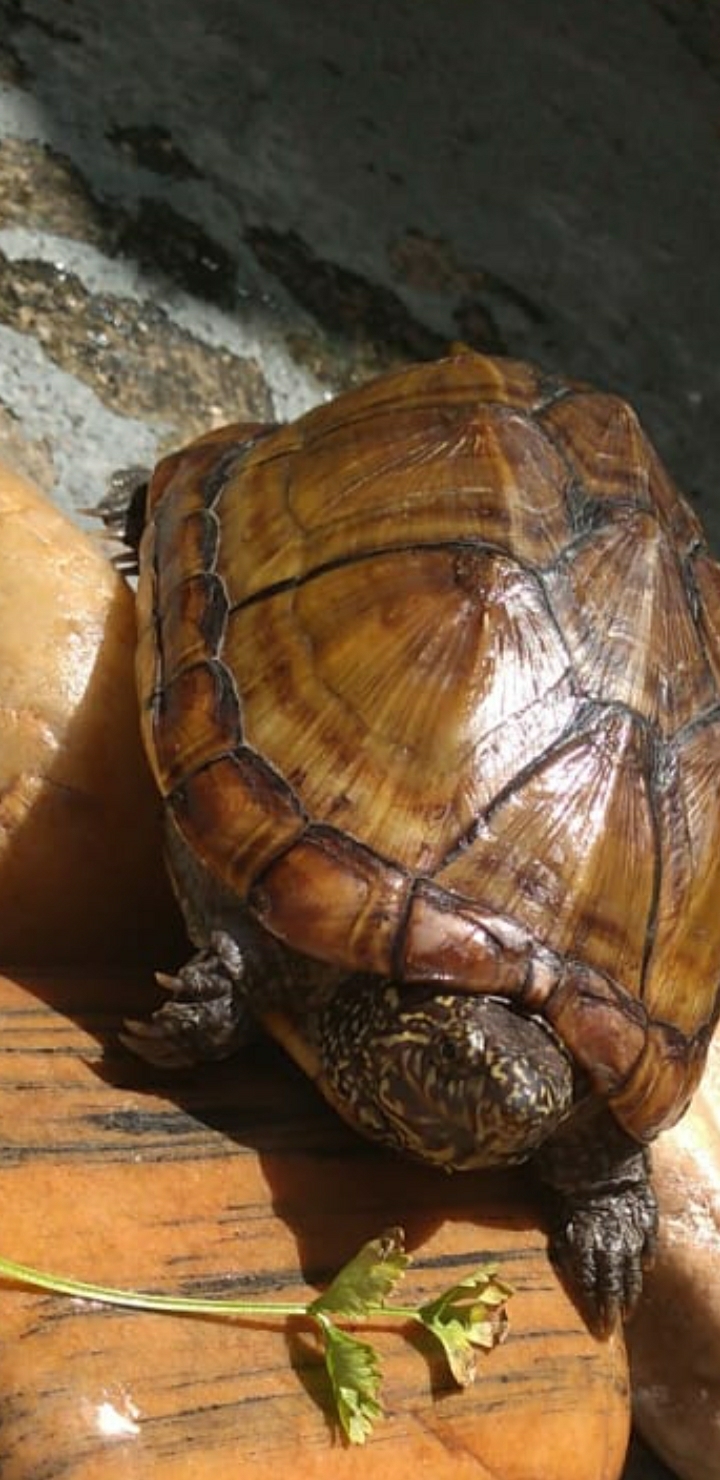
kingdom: Animalia
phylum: Chordata
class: Testudines
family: Kinosternidae
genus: Kinosternon
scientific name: Kinosternon scorpioides
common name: Scorpion mud turtle
